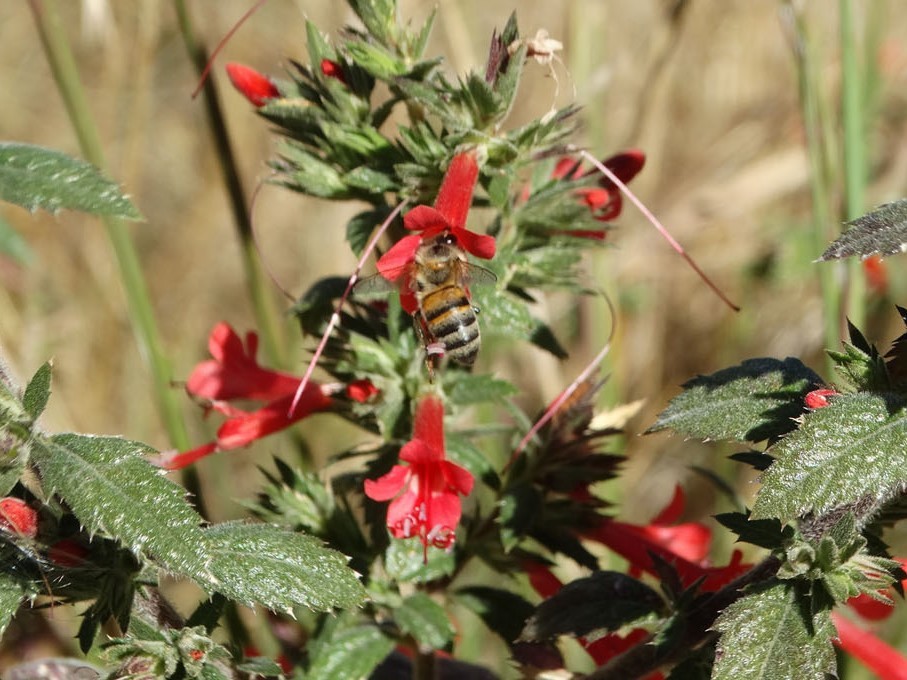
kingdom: Animalia
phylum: Arthropoda
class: Insecta
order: Hymenoptera
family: Apidae
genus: Apis
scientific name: Apis mellifera
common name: Honey bee
